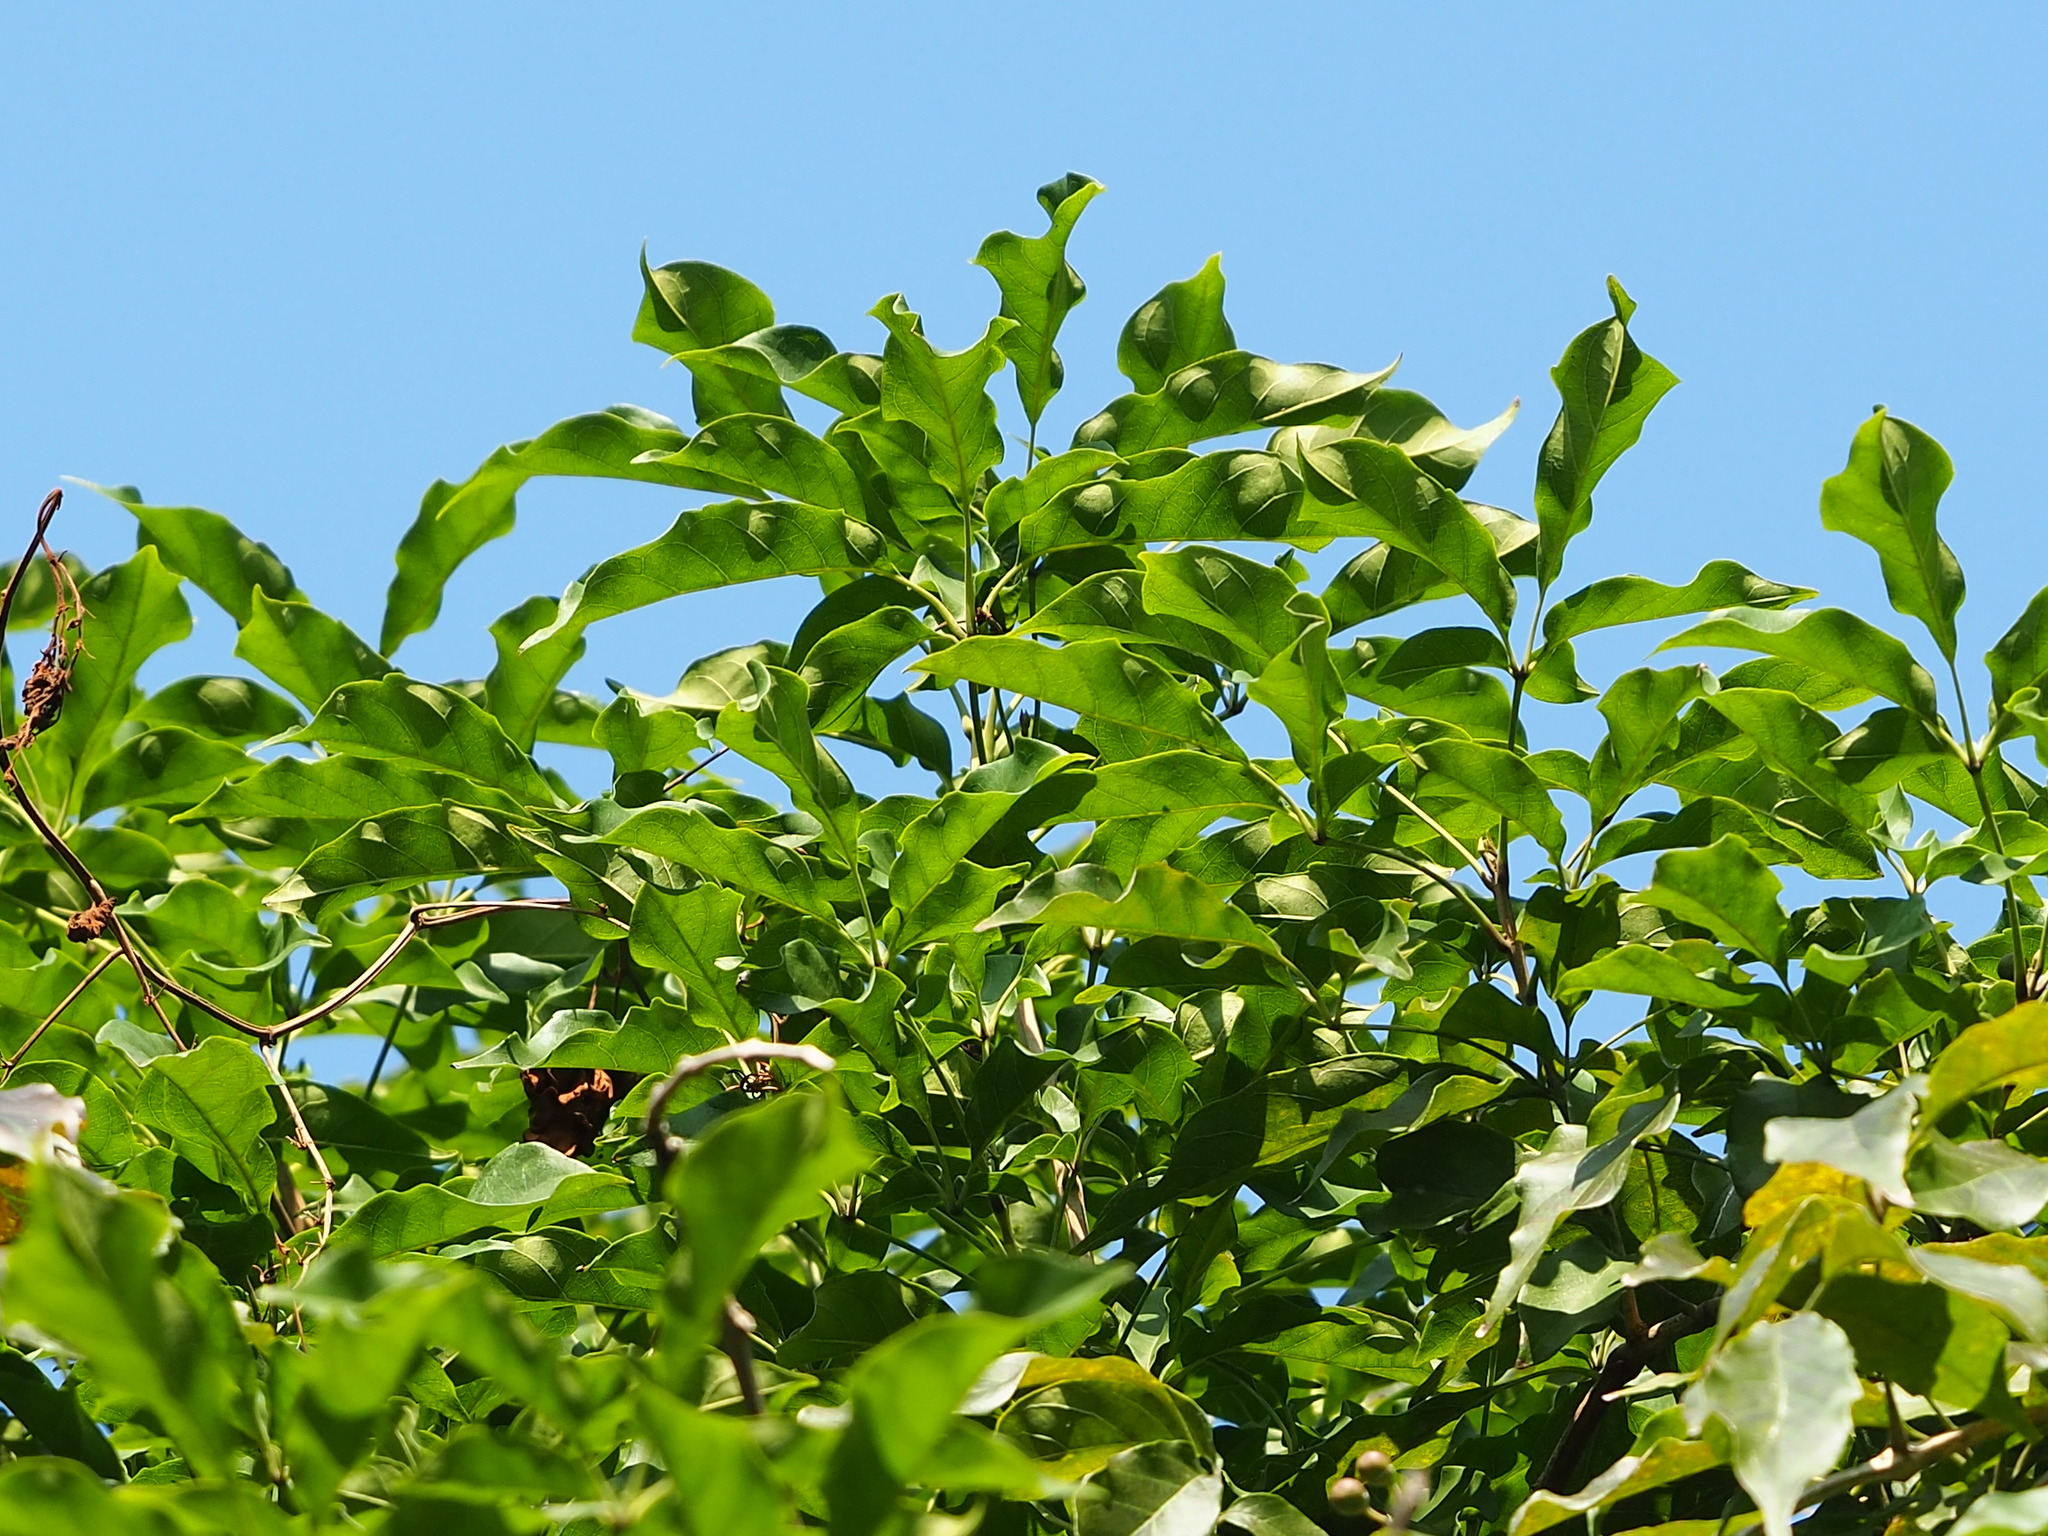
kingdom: Plantae
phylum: Tracheophyta
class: Magnoliopsida
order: Lamiales
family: Lamiaceae
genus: Vitex
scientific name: Vitex quinata
